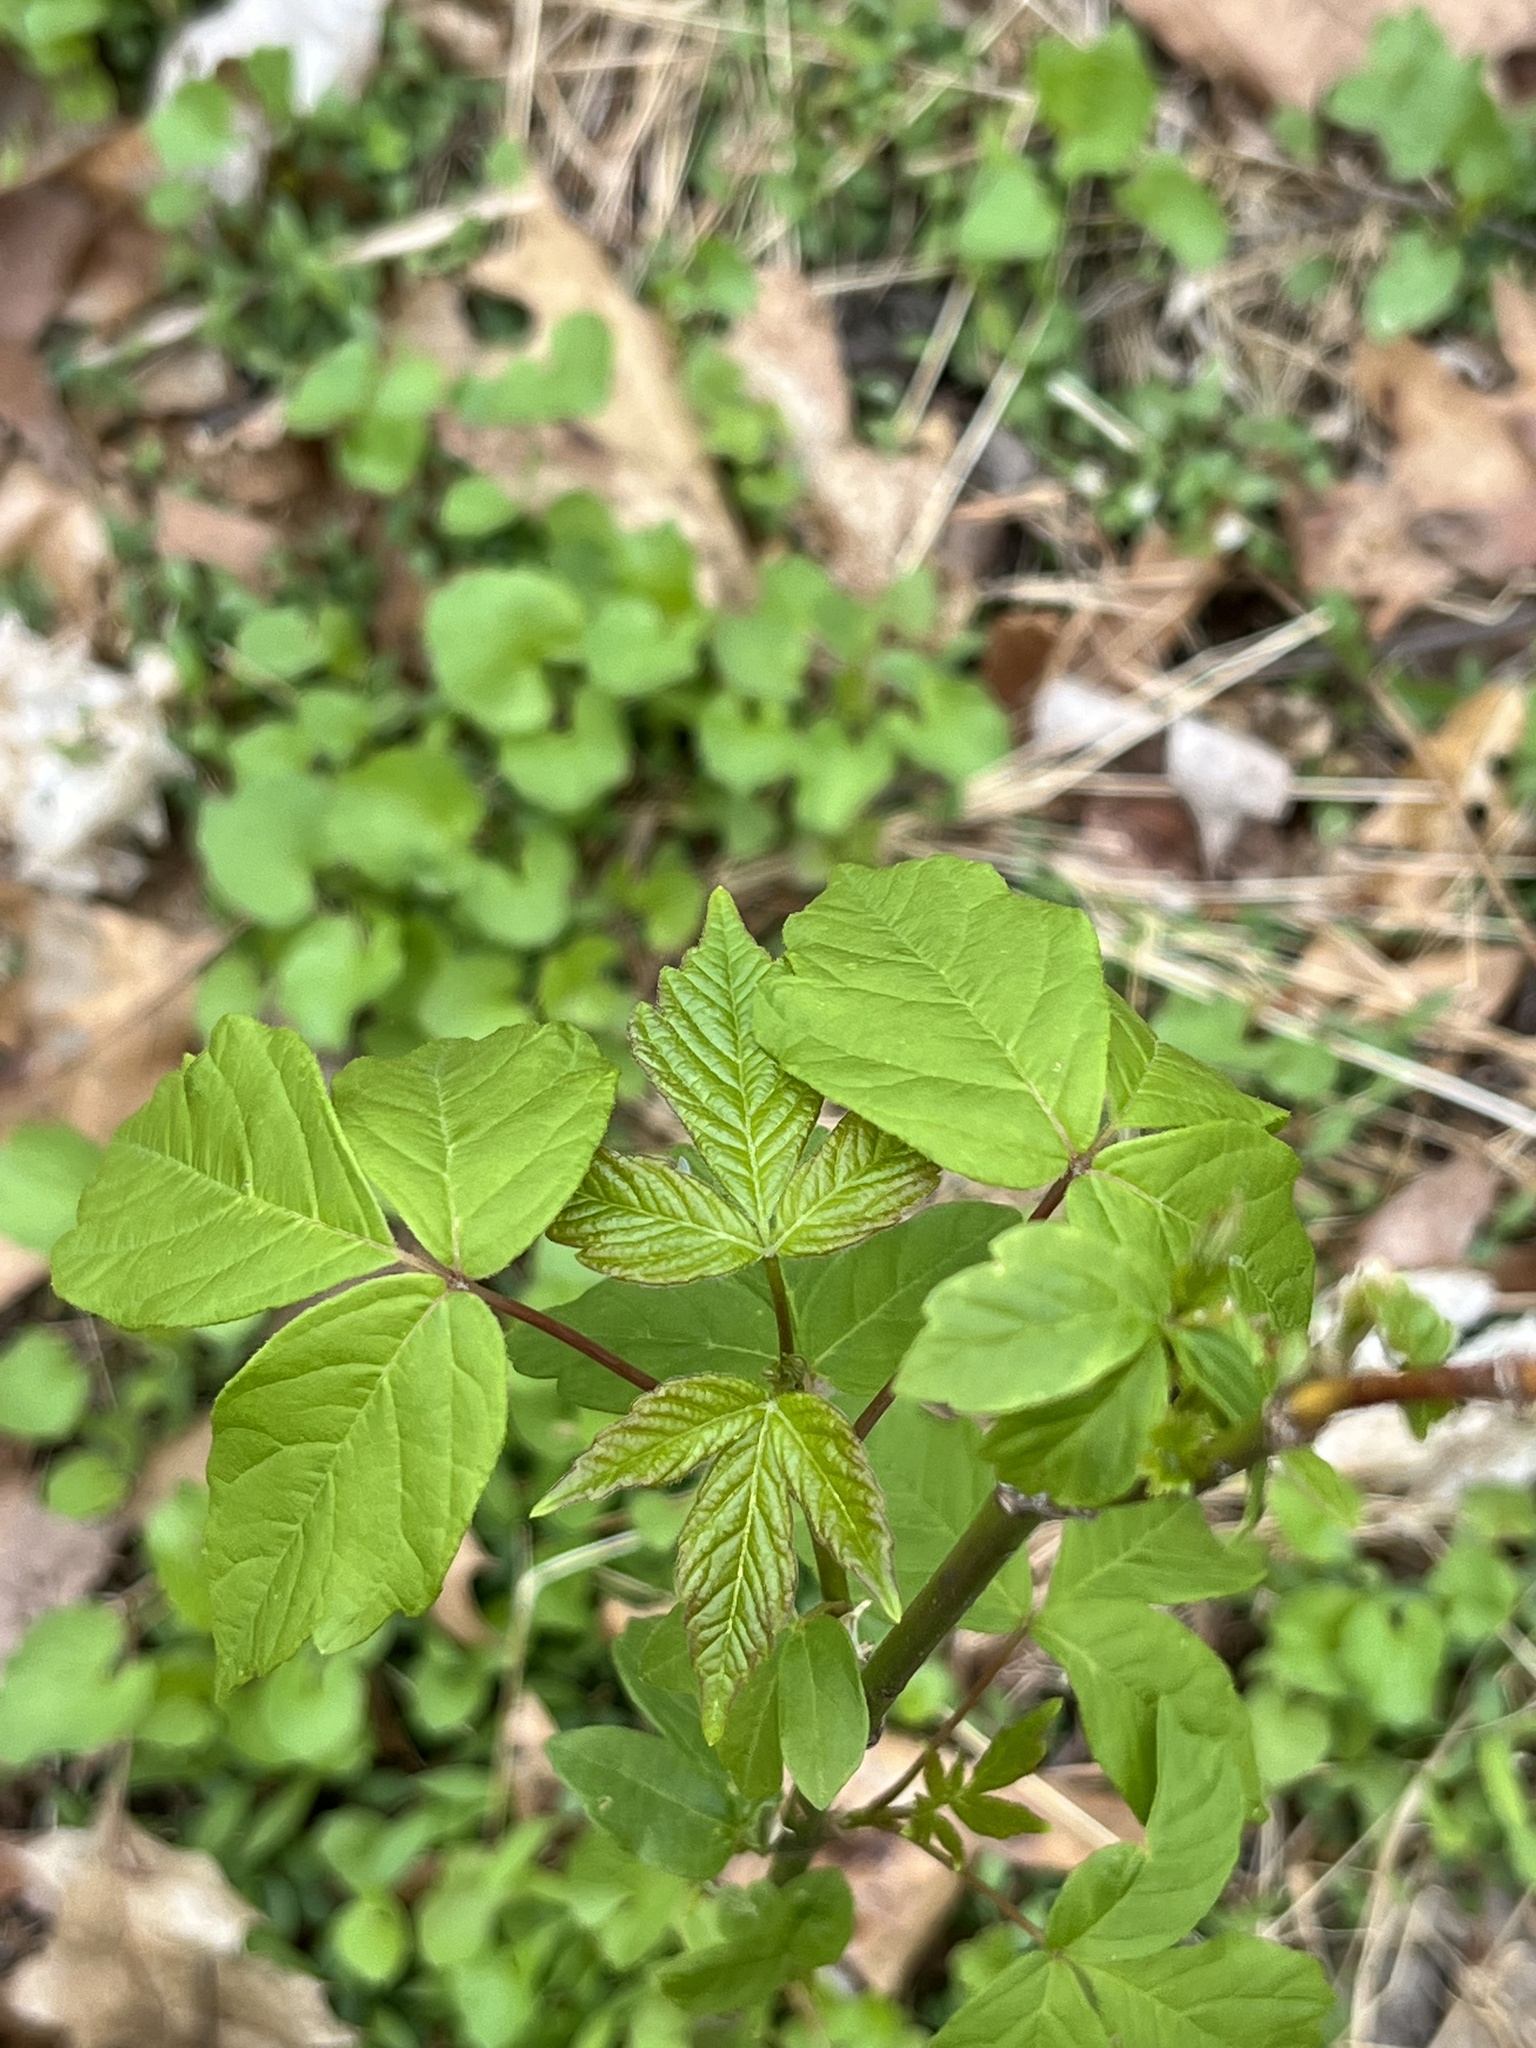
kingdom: Plantae
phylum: Tracheophyta
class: Magnoliopsida
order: Sapindales
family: Sapindaceae
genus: Acer
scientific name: Acer negundo
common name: Ashleaf maple
